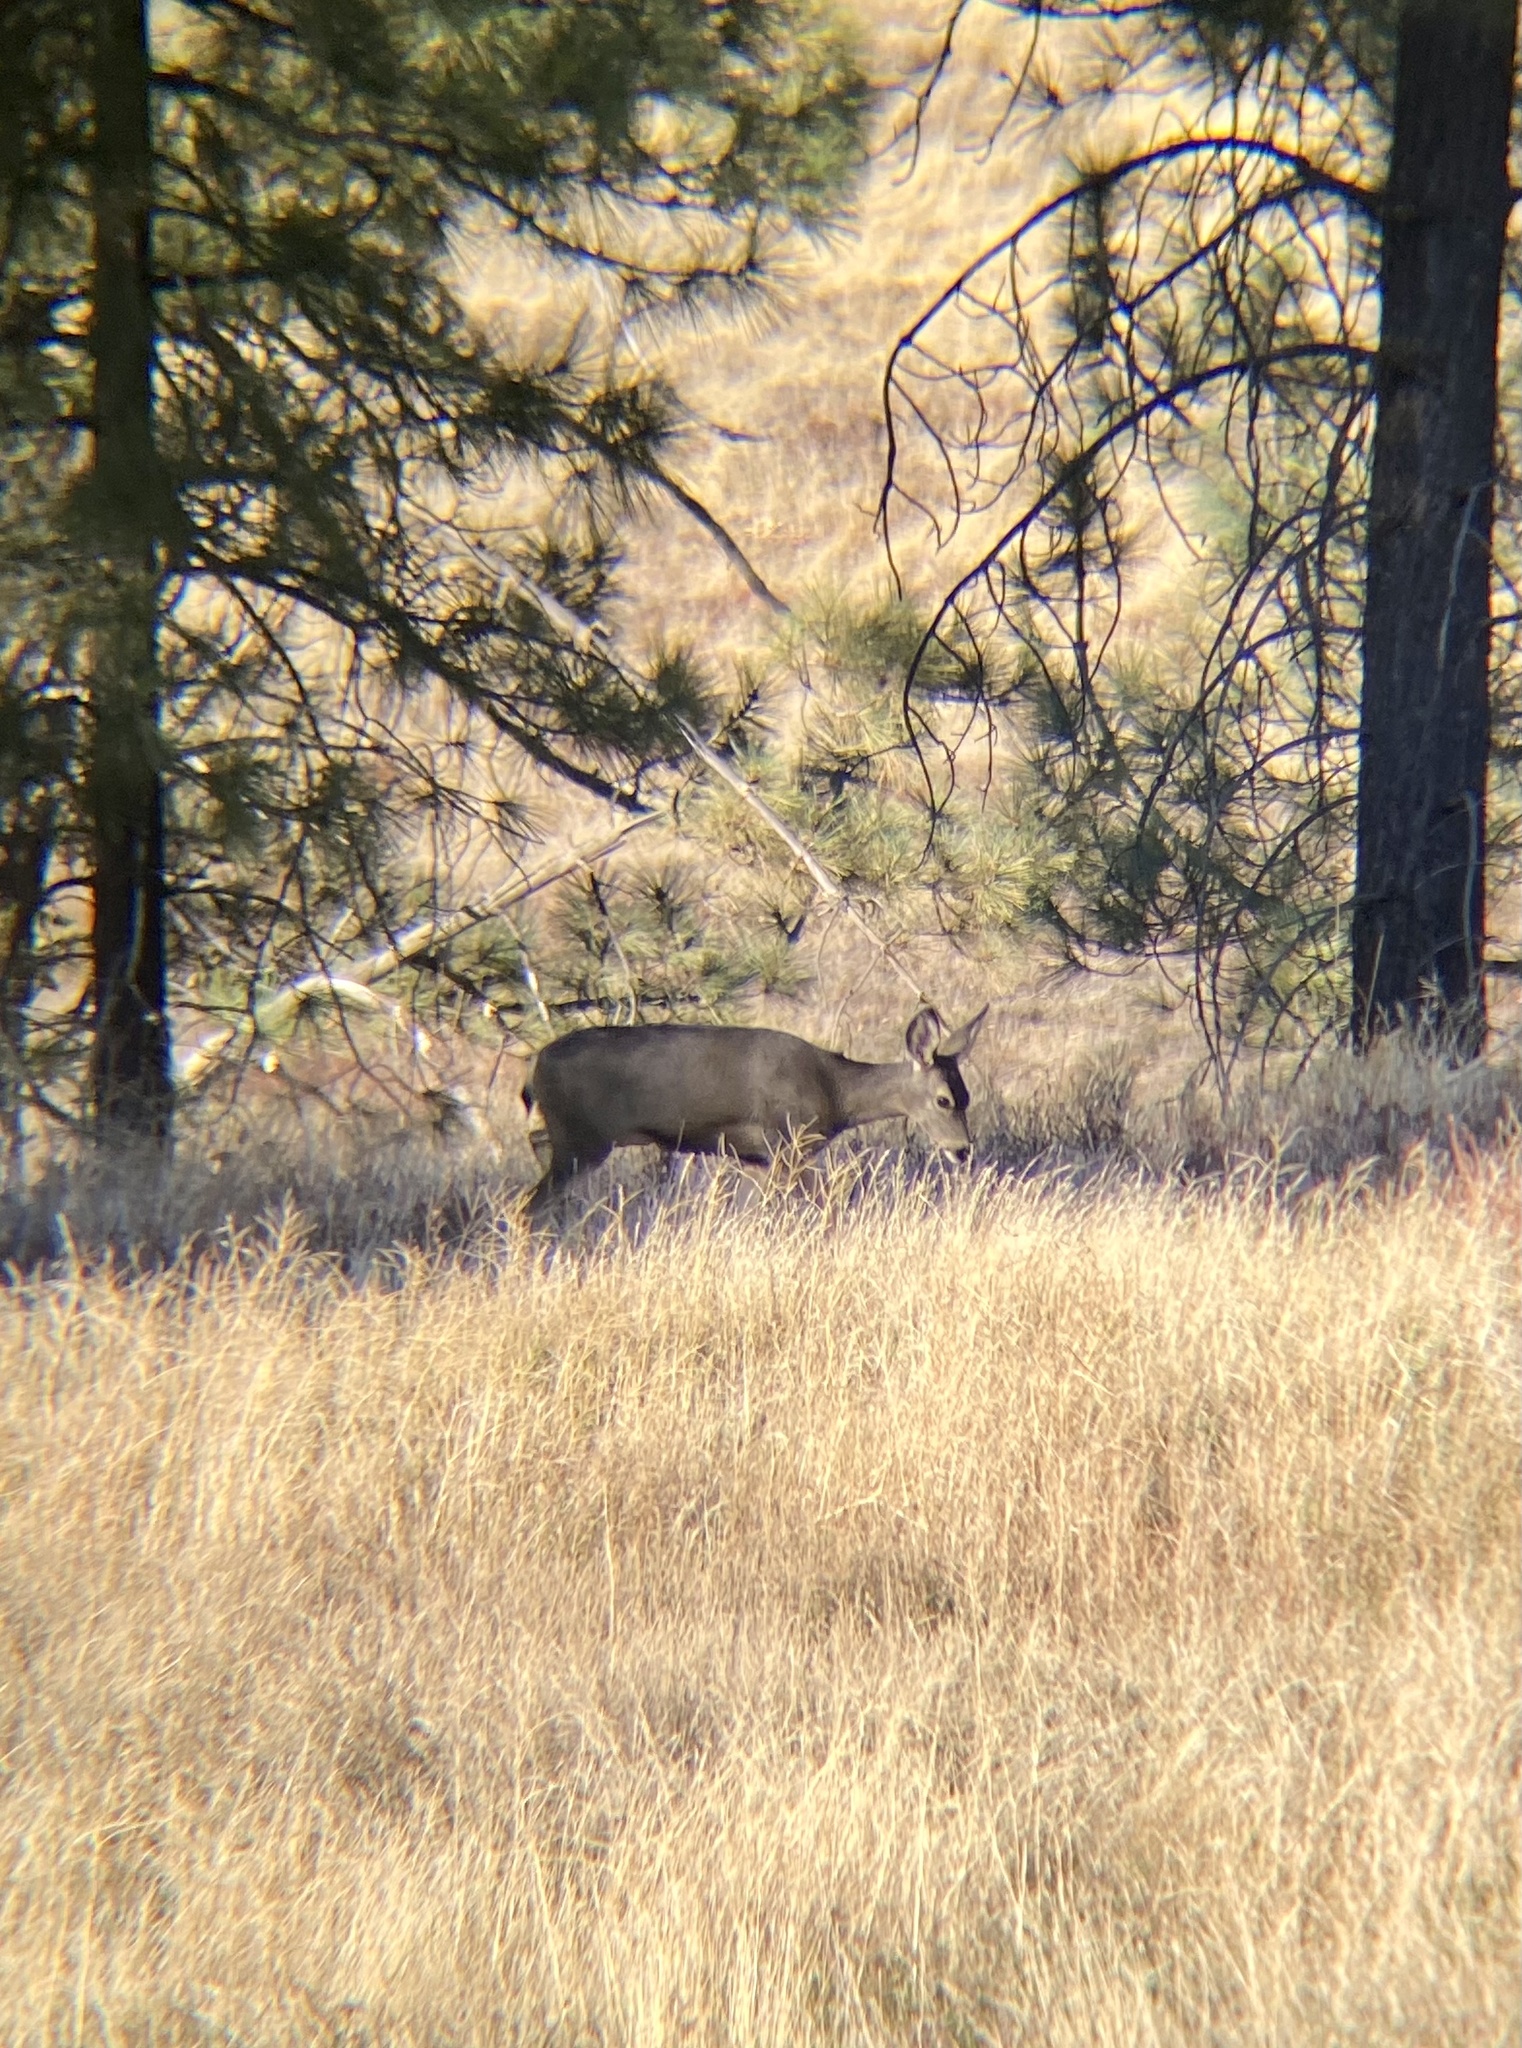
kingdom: Animalia
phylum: Chordata
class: Mammalia
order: Artiodactyla
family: Cervidae
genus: Odocoileus
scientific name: Odocoileus hemionus
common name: Mule deer
